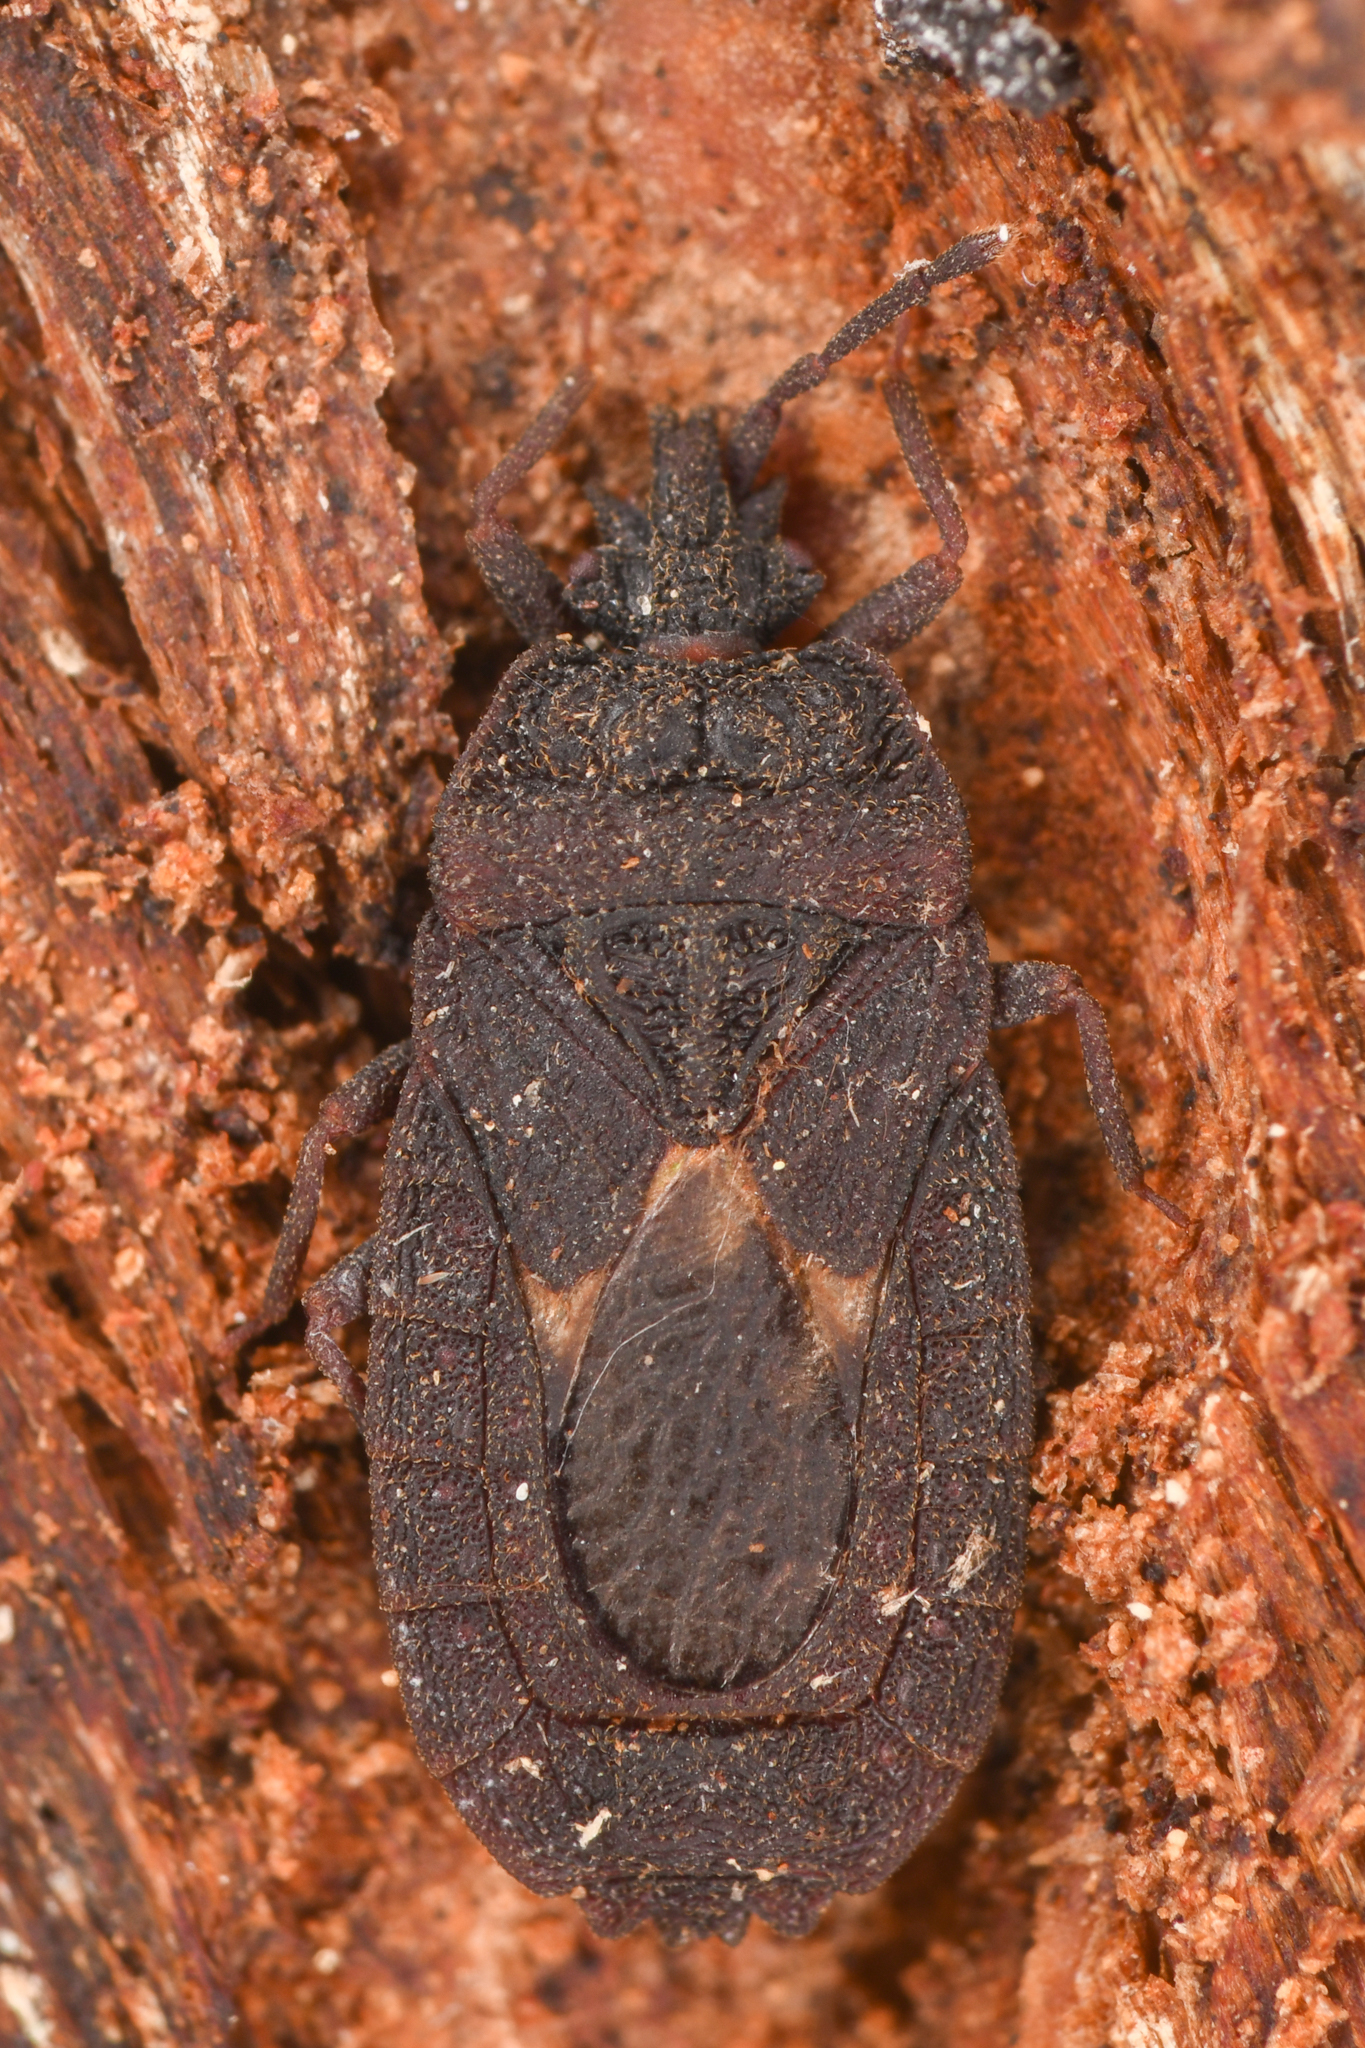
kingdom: Animalia
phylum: Arthropoda
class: Insecta
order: Hemiptera
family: Aradidae
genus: Mezira
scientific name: Mezira reducta
